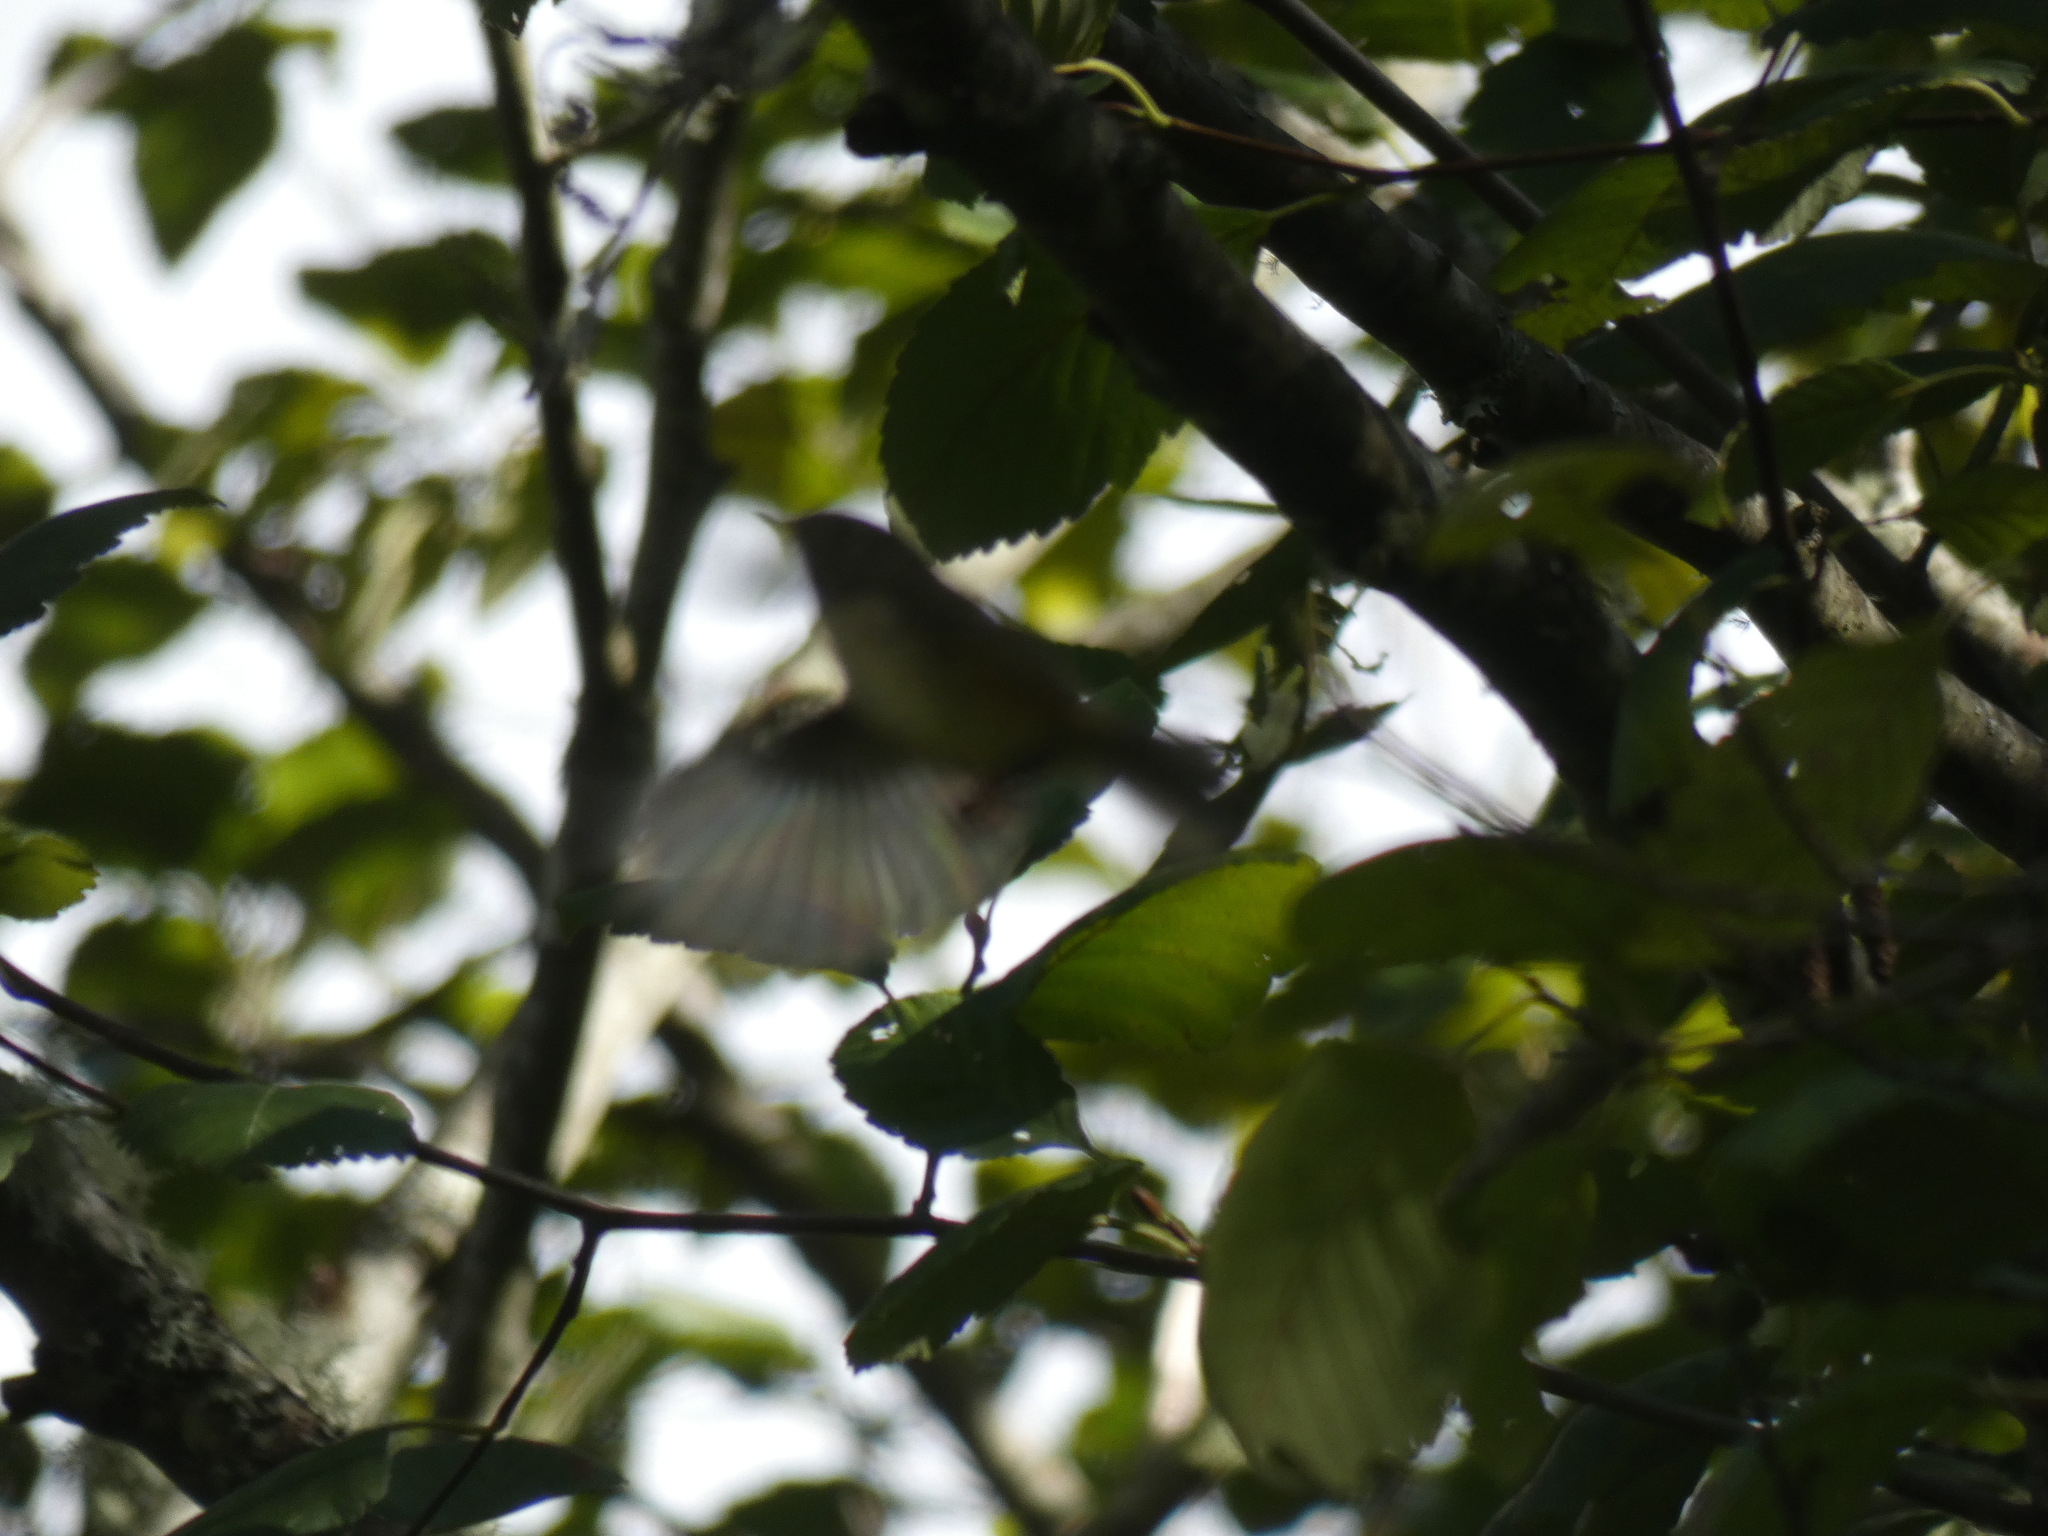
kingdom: Animalia
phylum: Chordata
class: Aves
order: Passeriformes
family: Regulidae
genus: Regulus
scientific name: Regulus calendula
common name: Ruby-crowned kinglet
